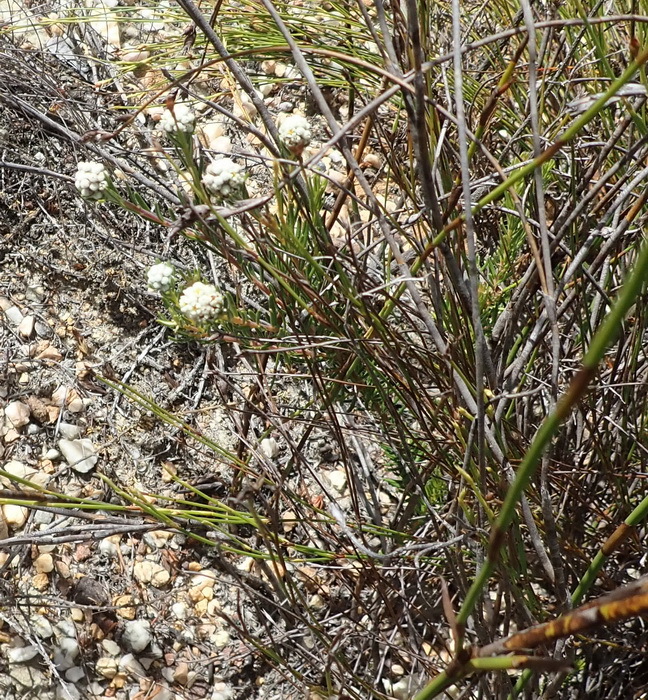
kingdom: Plantae
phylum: Tracheophyta
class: Magnoliopsida
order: Rosales
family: Rhamnaceae
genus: Phylica
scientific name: Phylica imberbis
